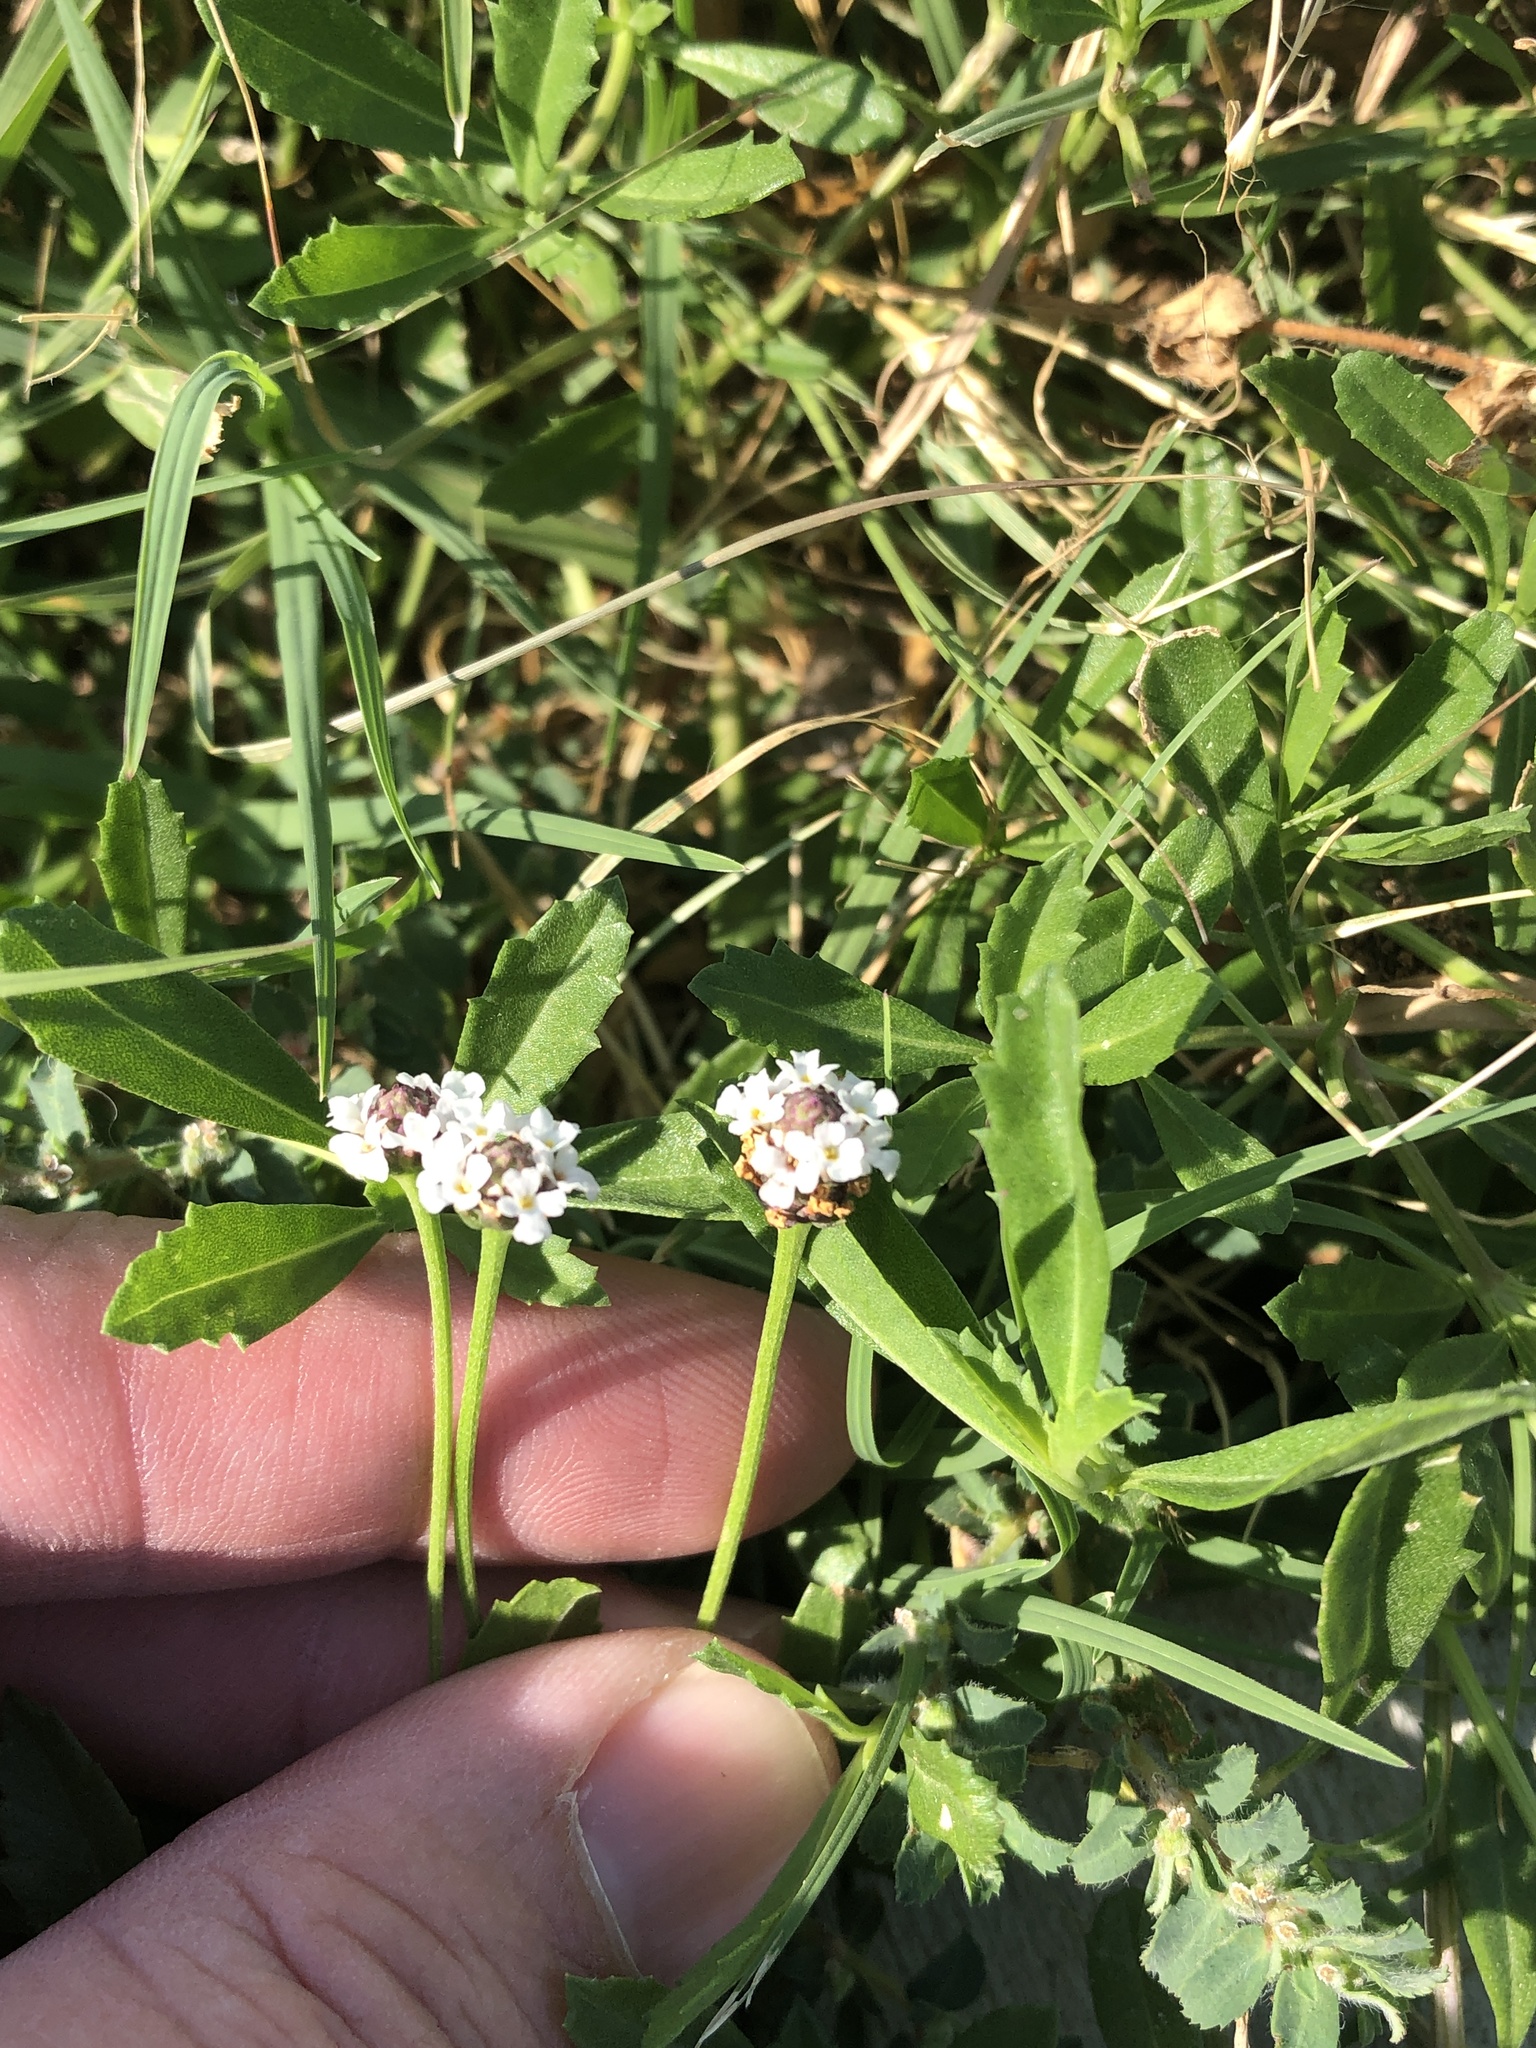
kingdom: Plantae
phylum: Tracheophyta
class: Magnoliopsida
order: Lamiales
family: Verbenaceae
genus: Phyla
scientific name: Phyla nodiflora
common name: Frogfruit
